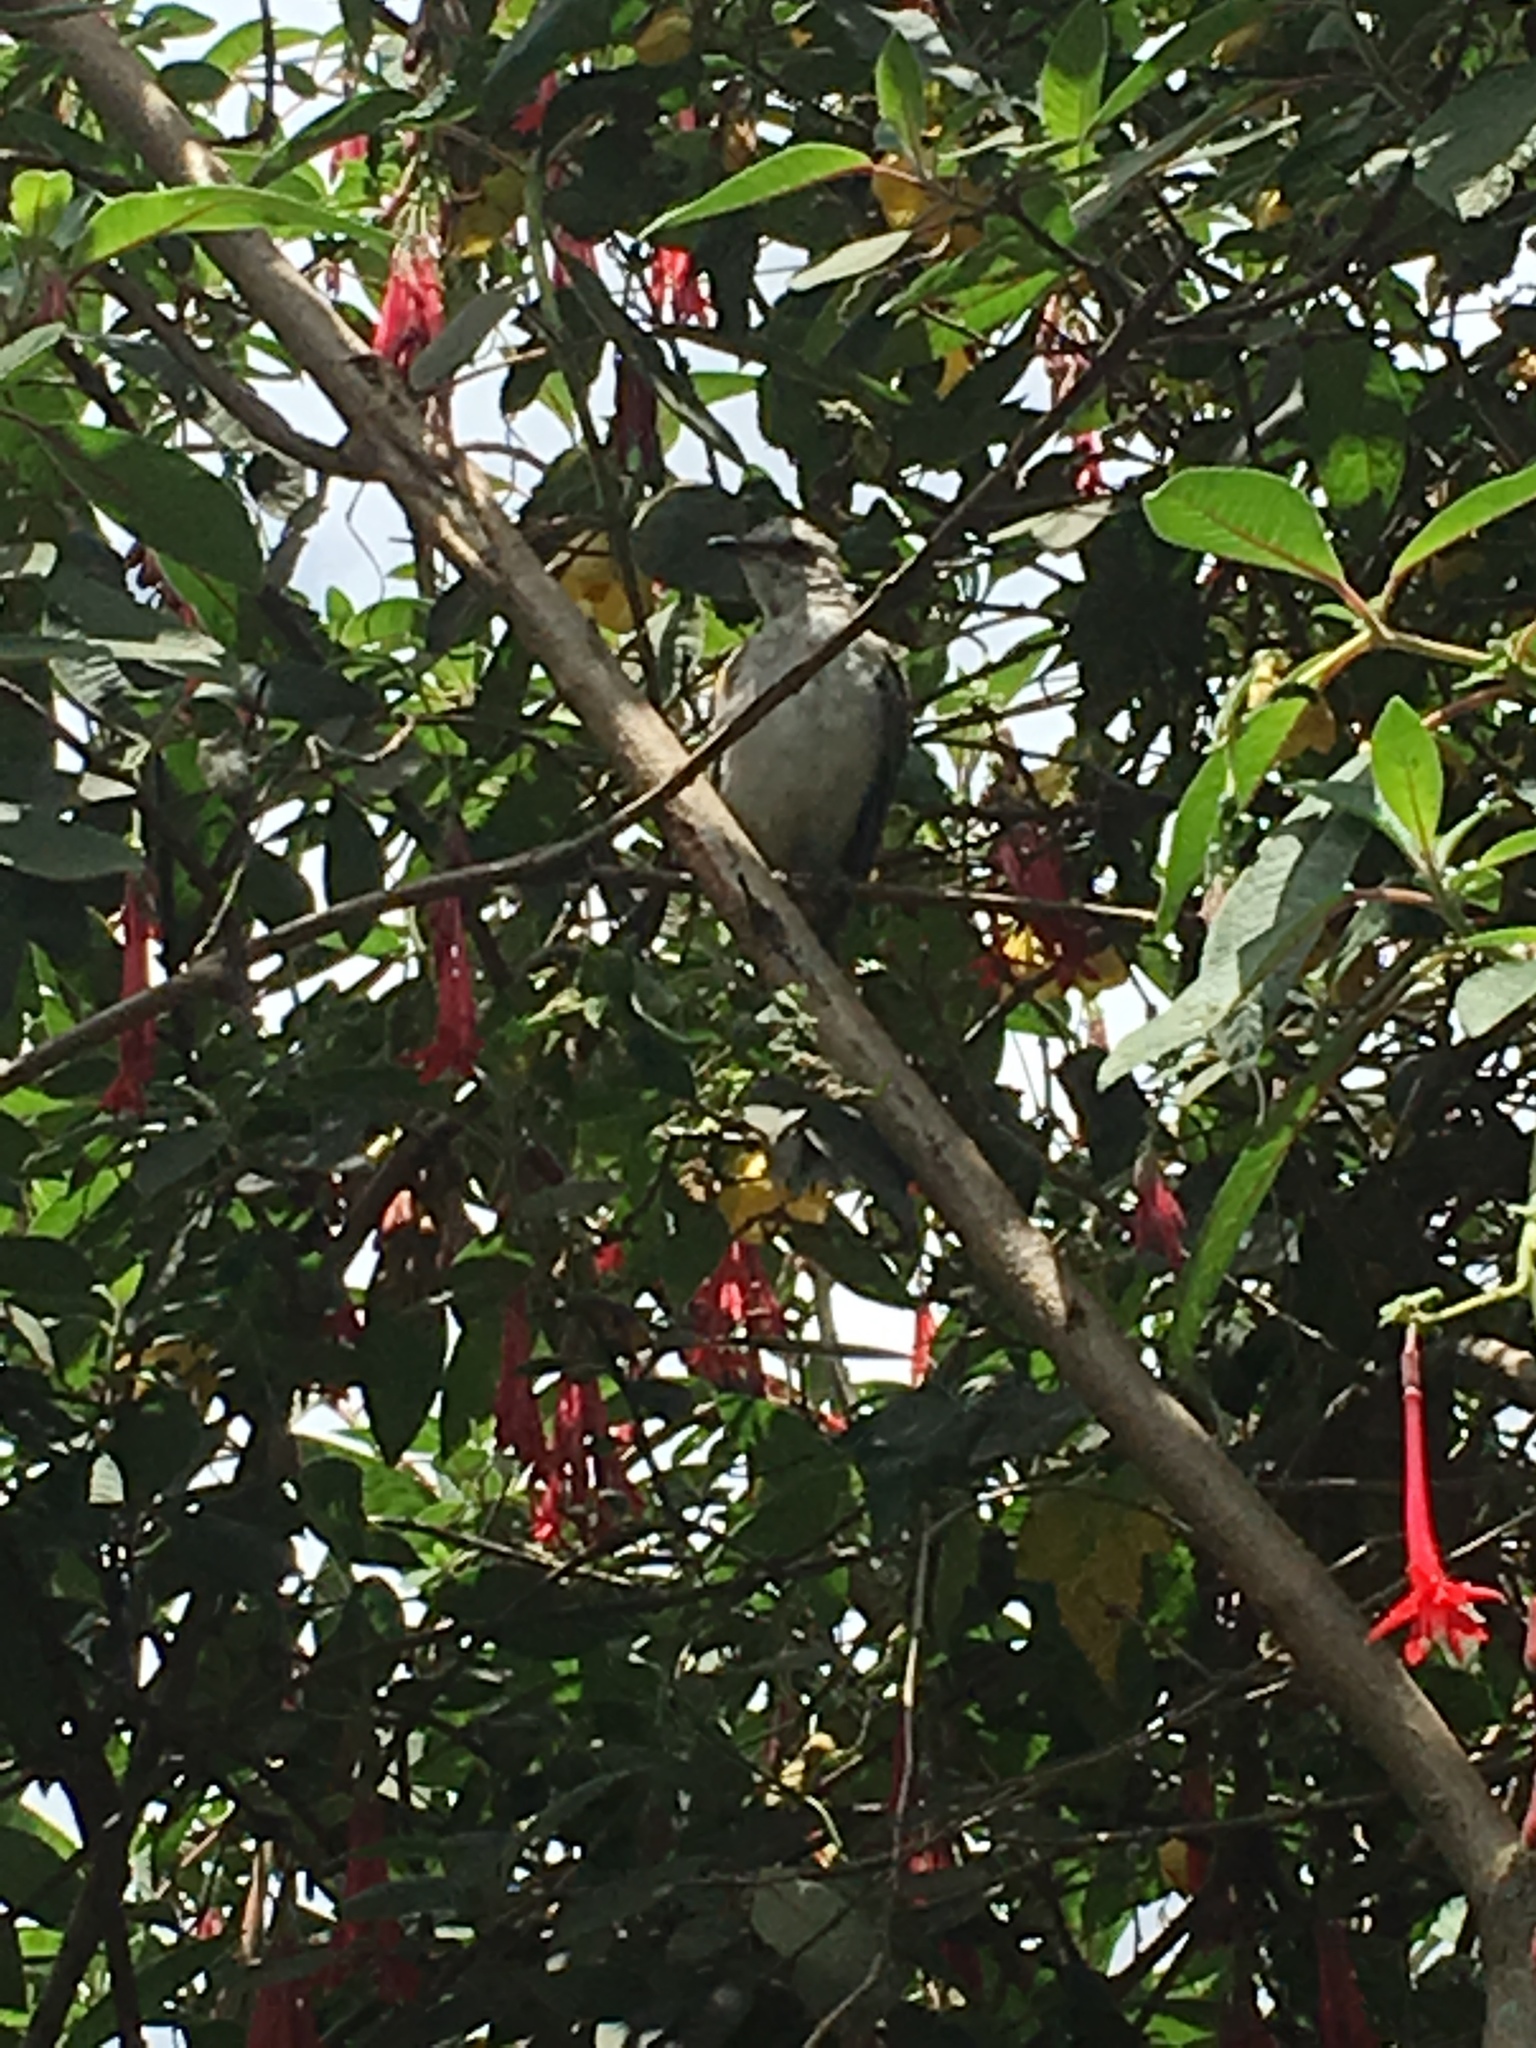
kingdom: Animalia
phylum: Chordata
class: Aves
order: Passeriformes
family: Mimidae
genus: Mimus
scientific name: Mimus gilvus
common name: Tropical mockingbird
